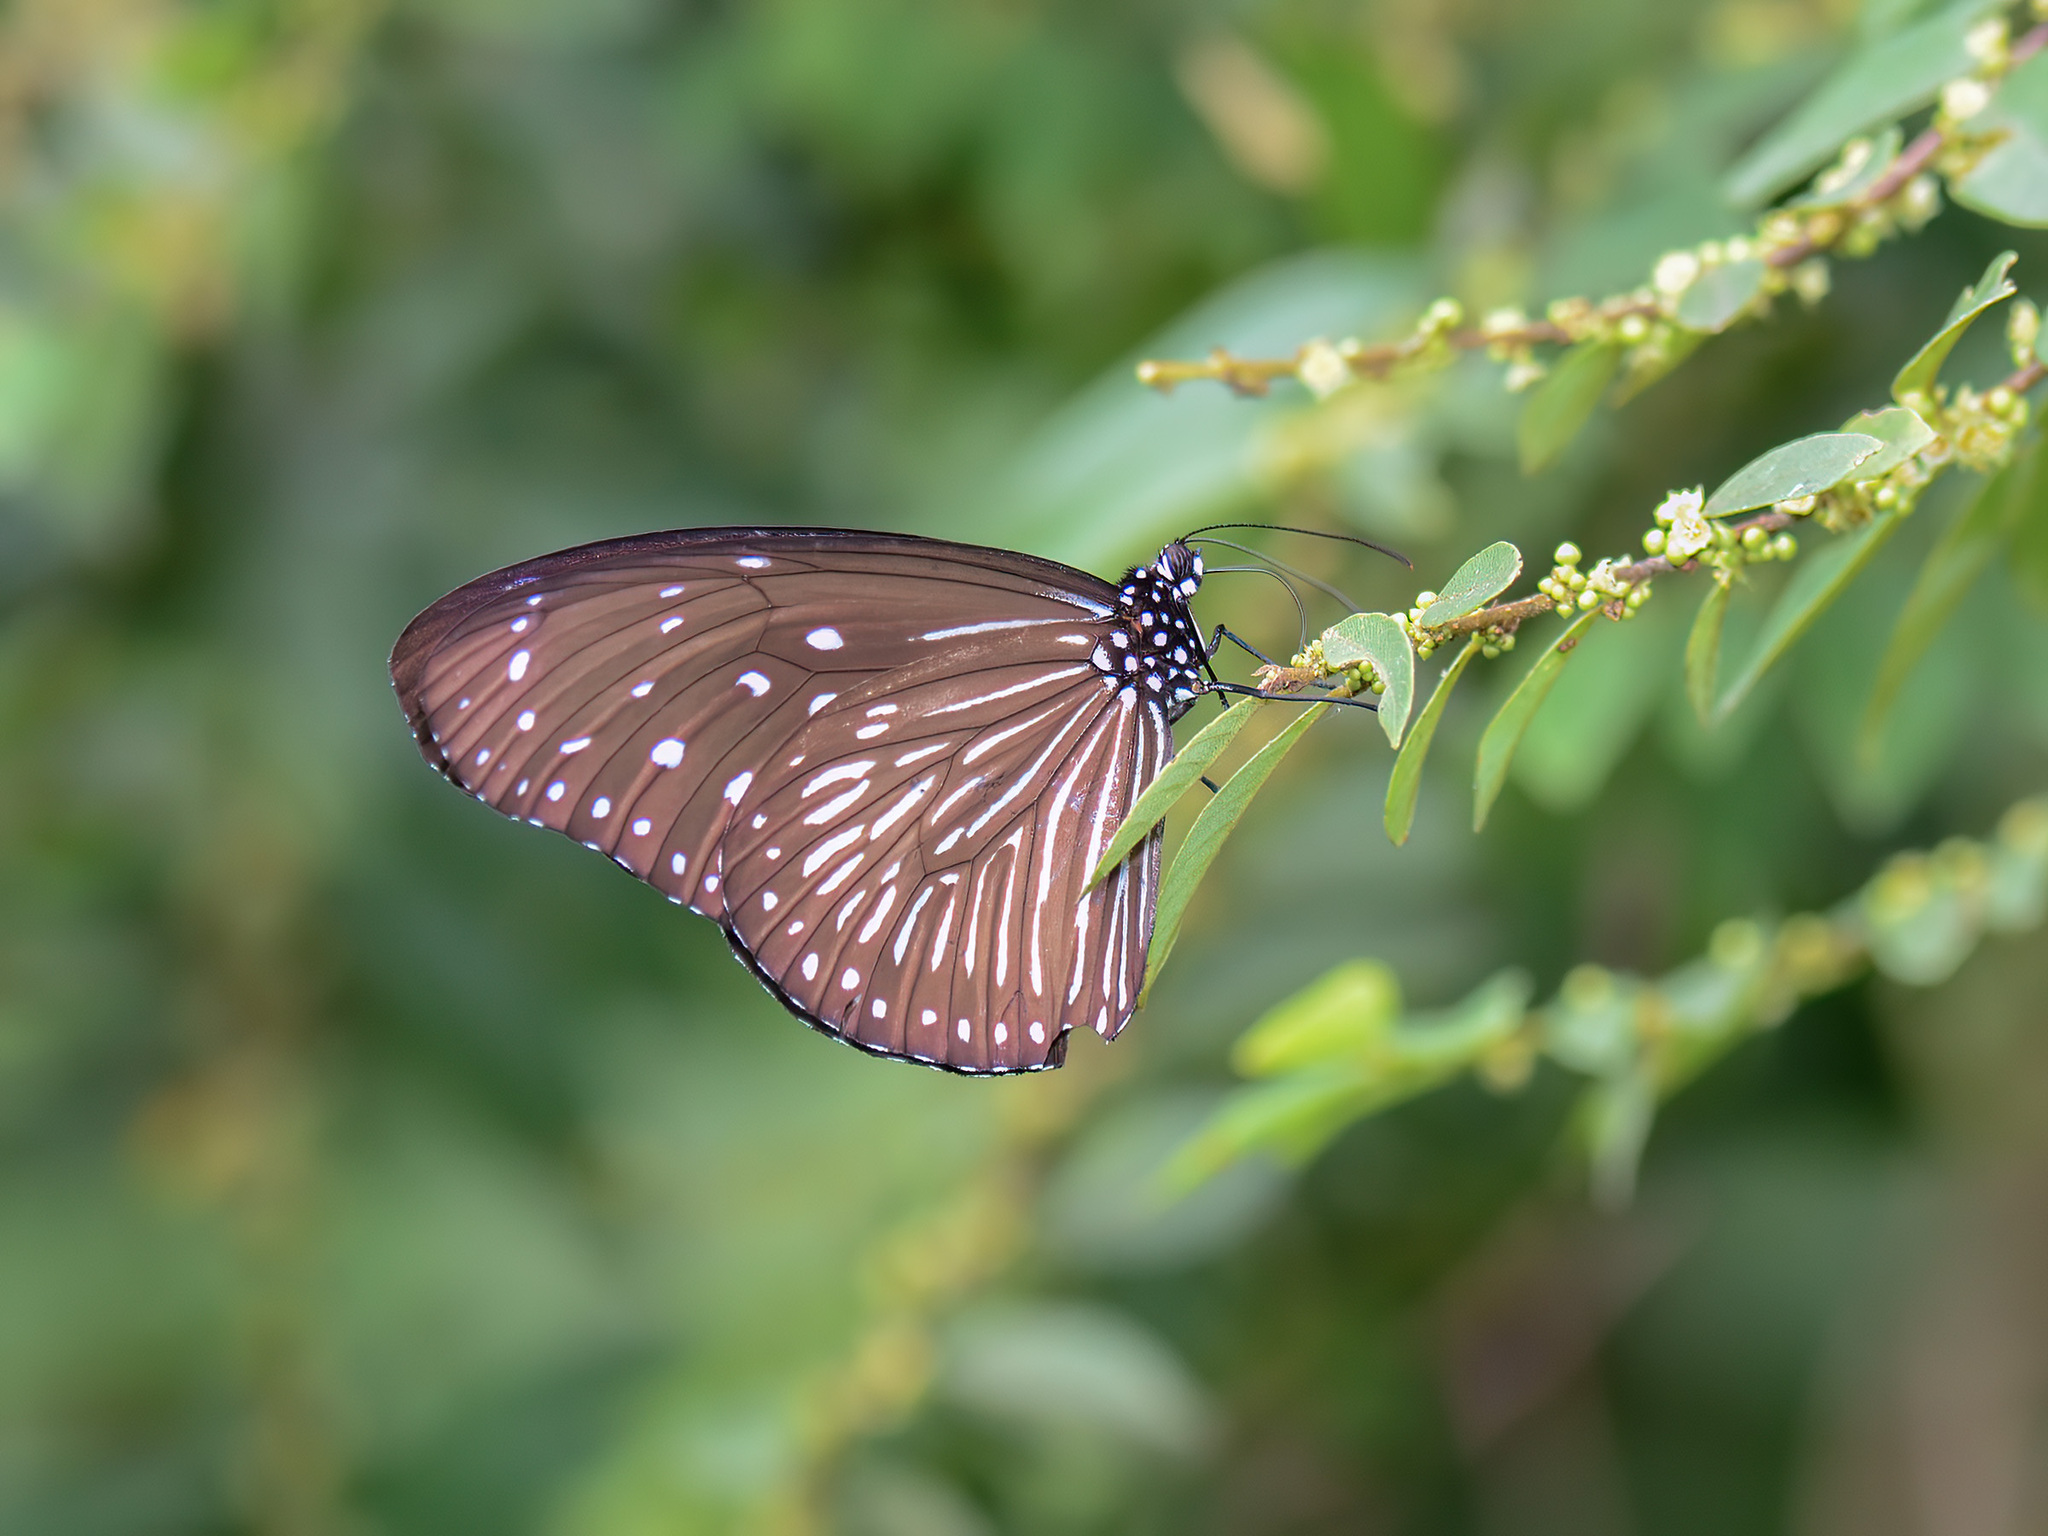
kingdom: Animalia
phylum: Arthropoda
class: Insecta
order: Lepidoptera
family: Nymphalidae
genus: Euploea
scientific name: Euploea mulciber
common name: Striped blue crow butterfly
